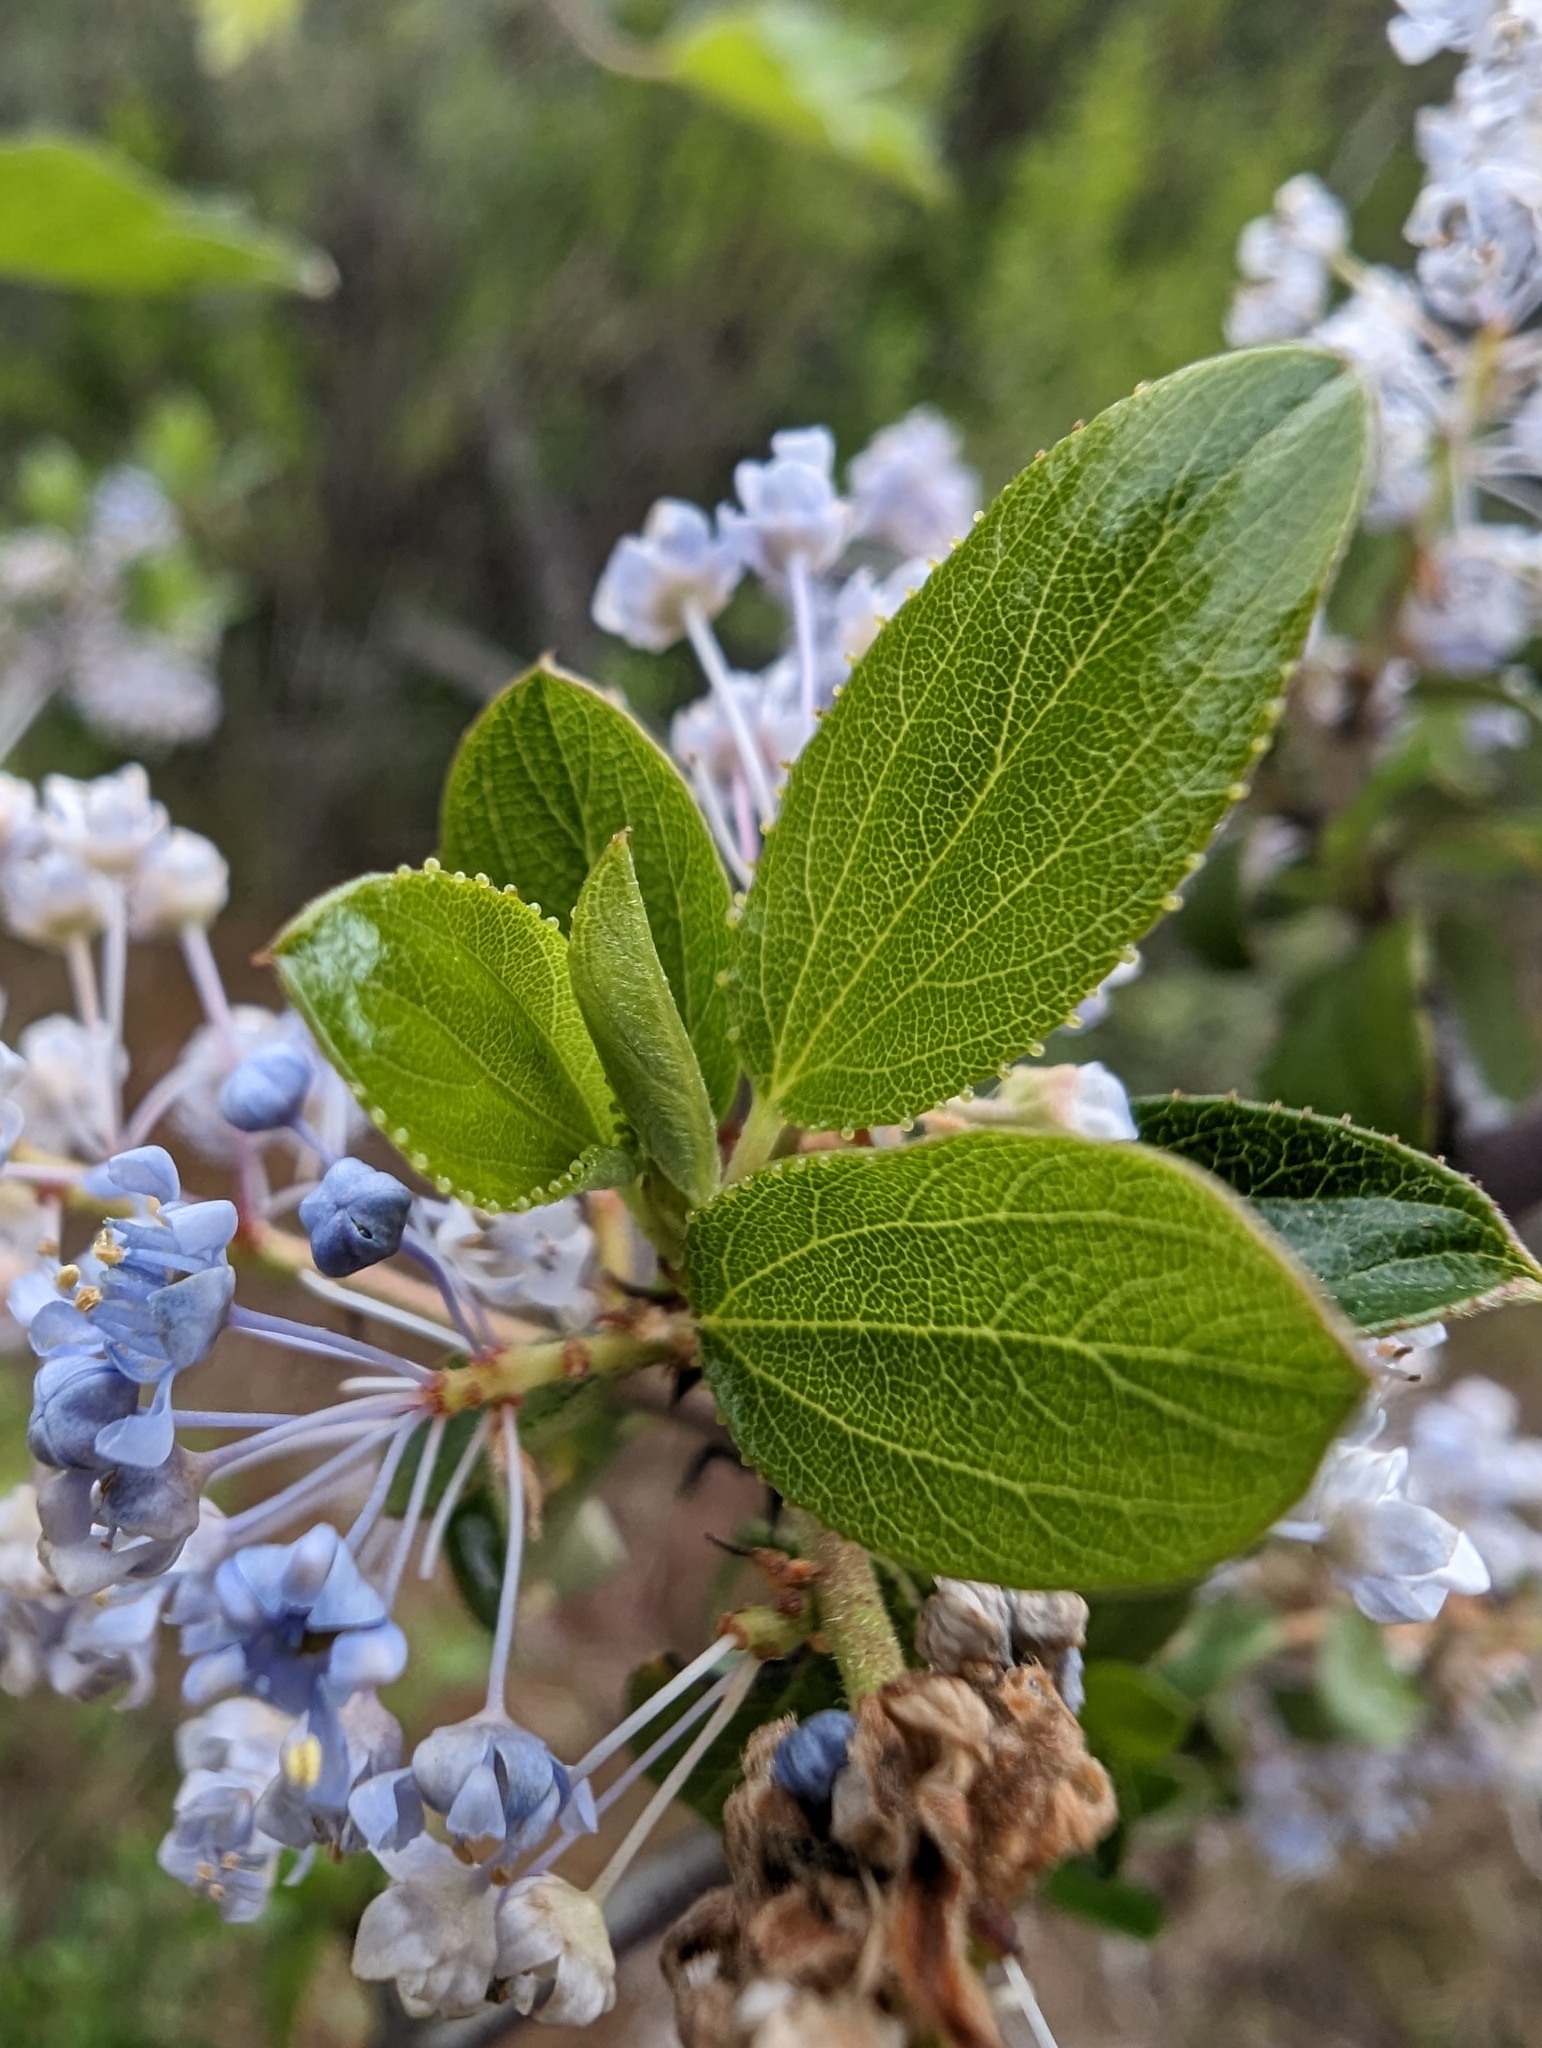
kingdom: Plantae
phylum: Tracheophyta
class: Magnoliopsida
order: Rosales
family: Rhamnaceae
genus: Ceanothus
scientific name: Ceanothus sorediatus
